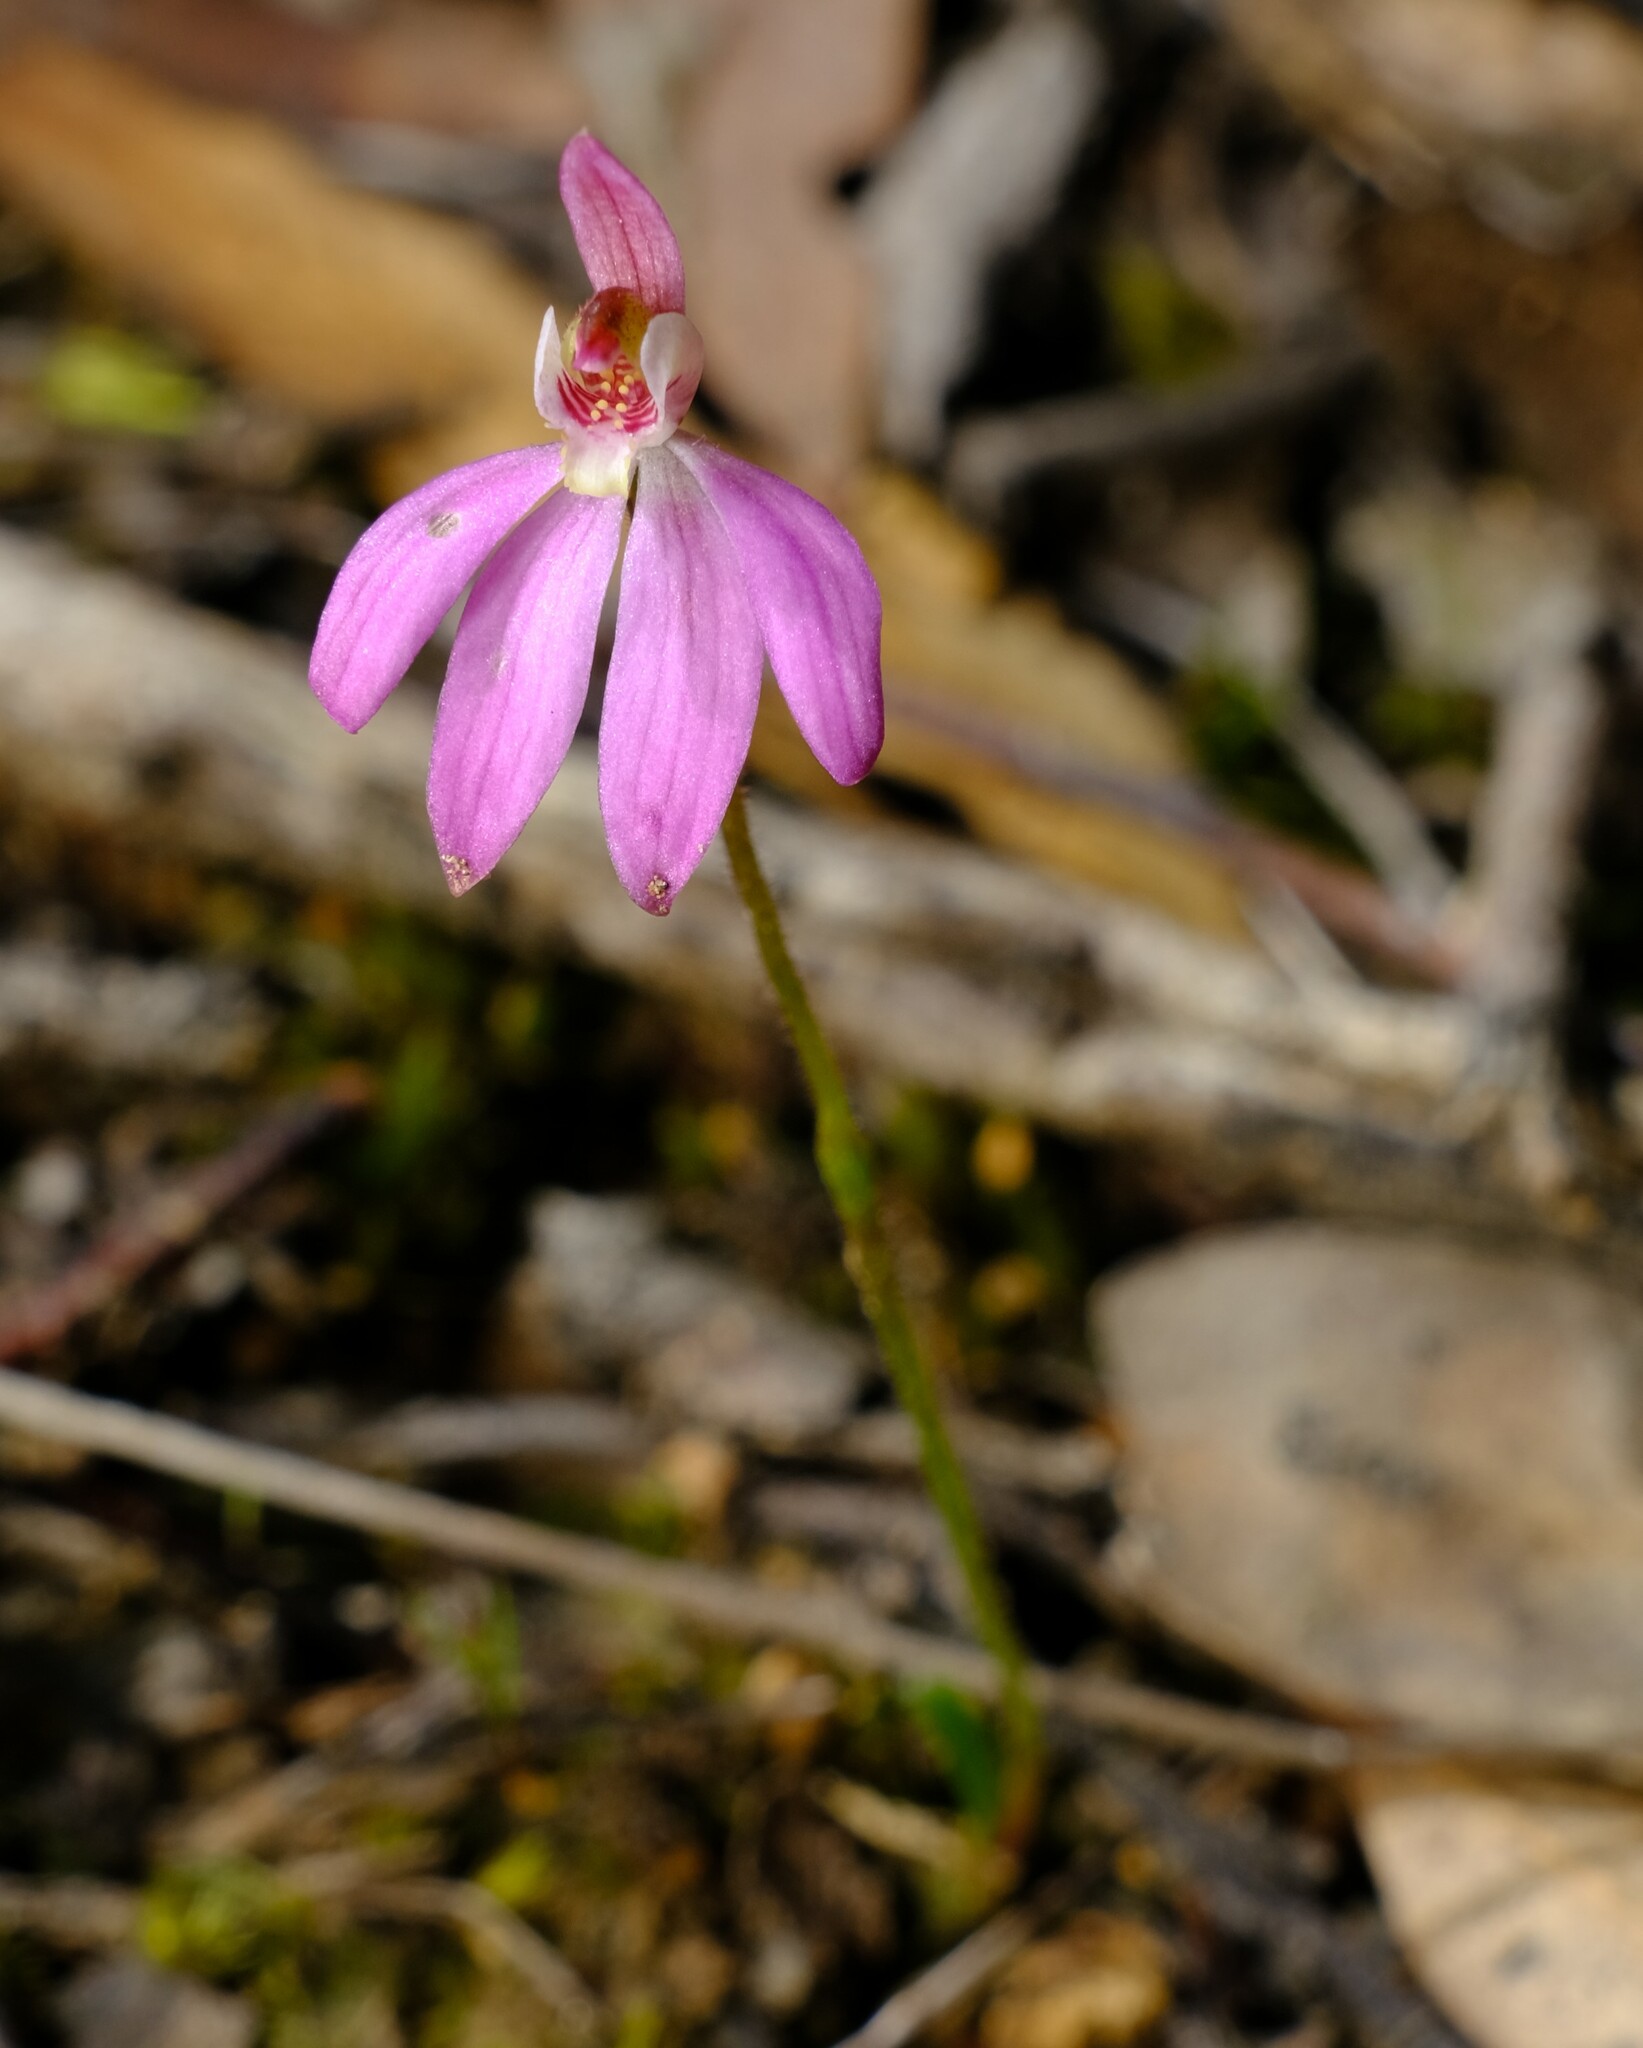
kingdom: Plantae
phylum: Tracheophyta
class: Liliopsida
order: Asparagales
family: Orchidaceae
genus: Caladenia
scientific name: Caladenia carnea
